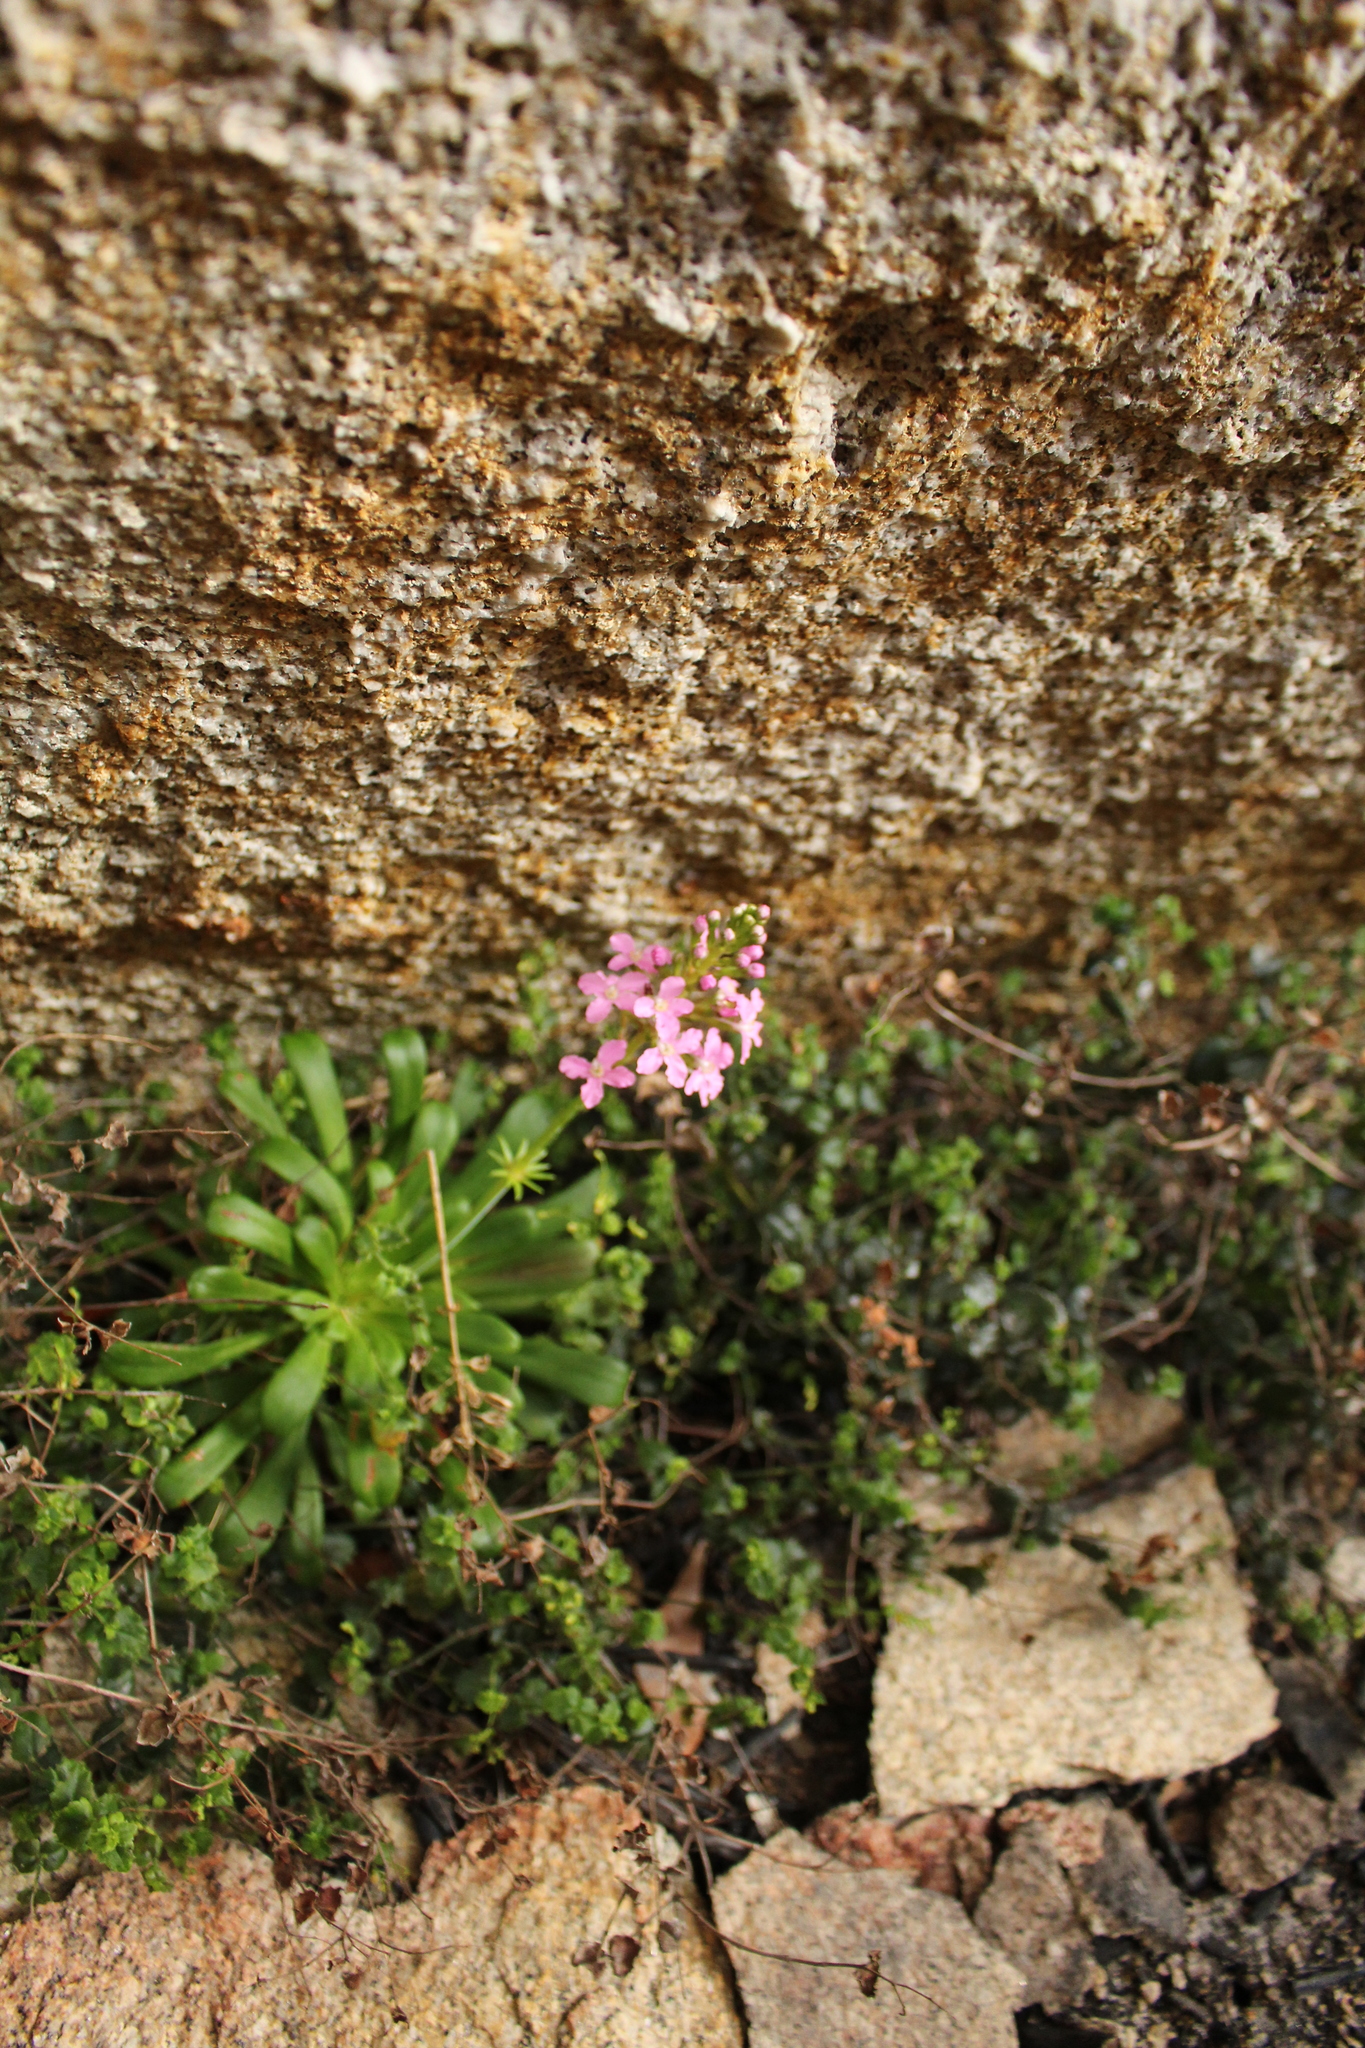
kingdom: Plantae
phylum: Tracheophyta
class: Magnoliopsida
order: Asterales
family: Stylidiaceae
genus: Stylidium
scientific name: Stylidium articulatum
